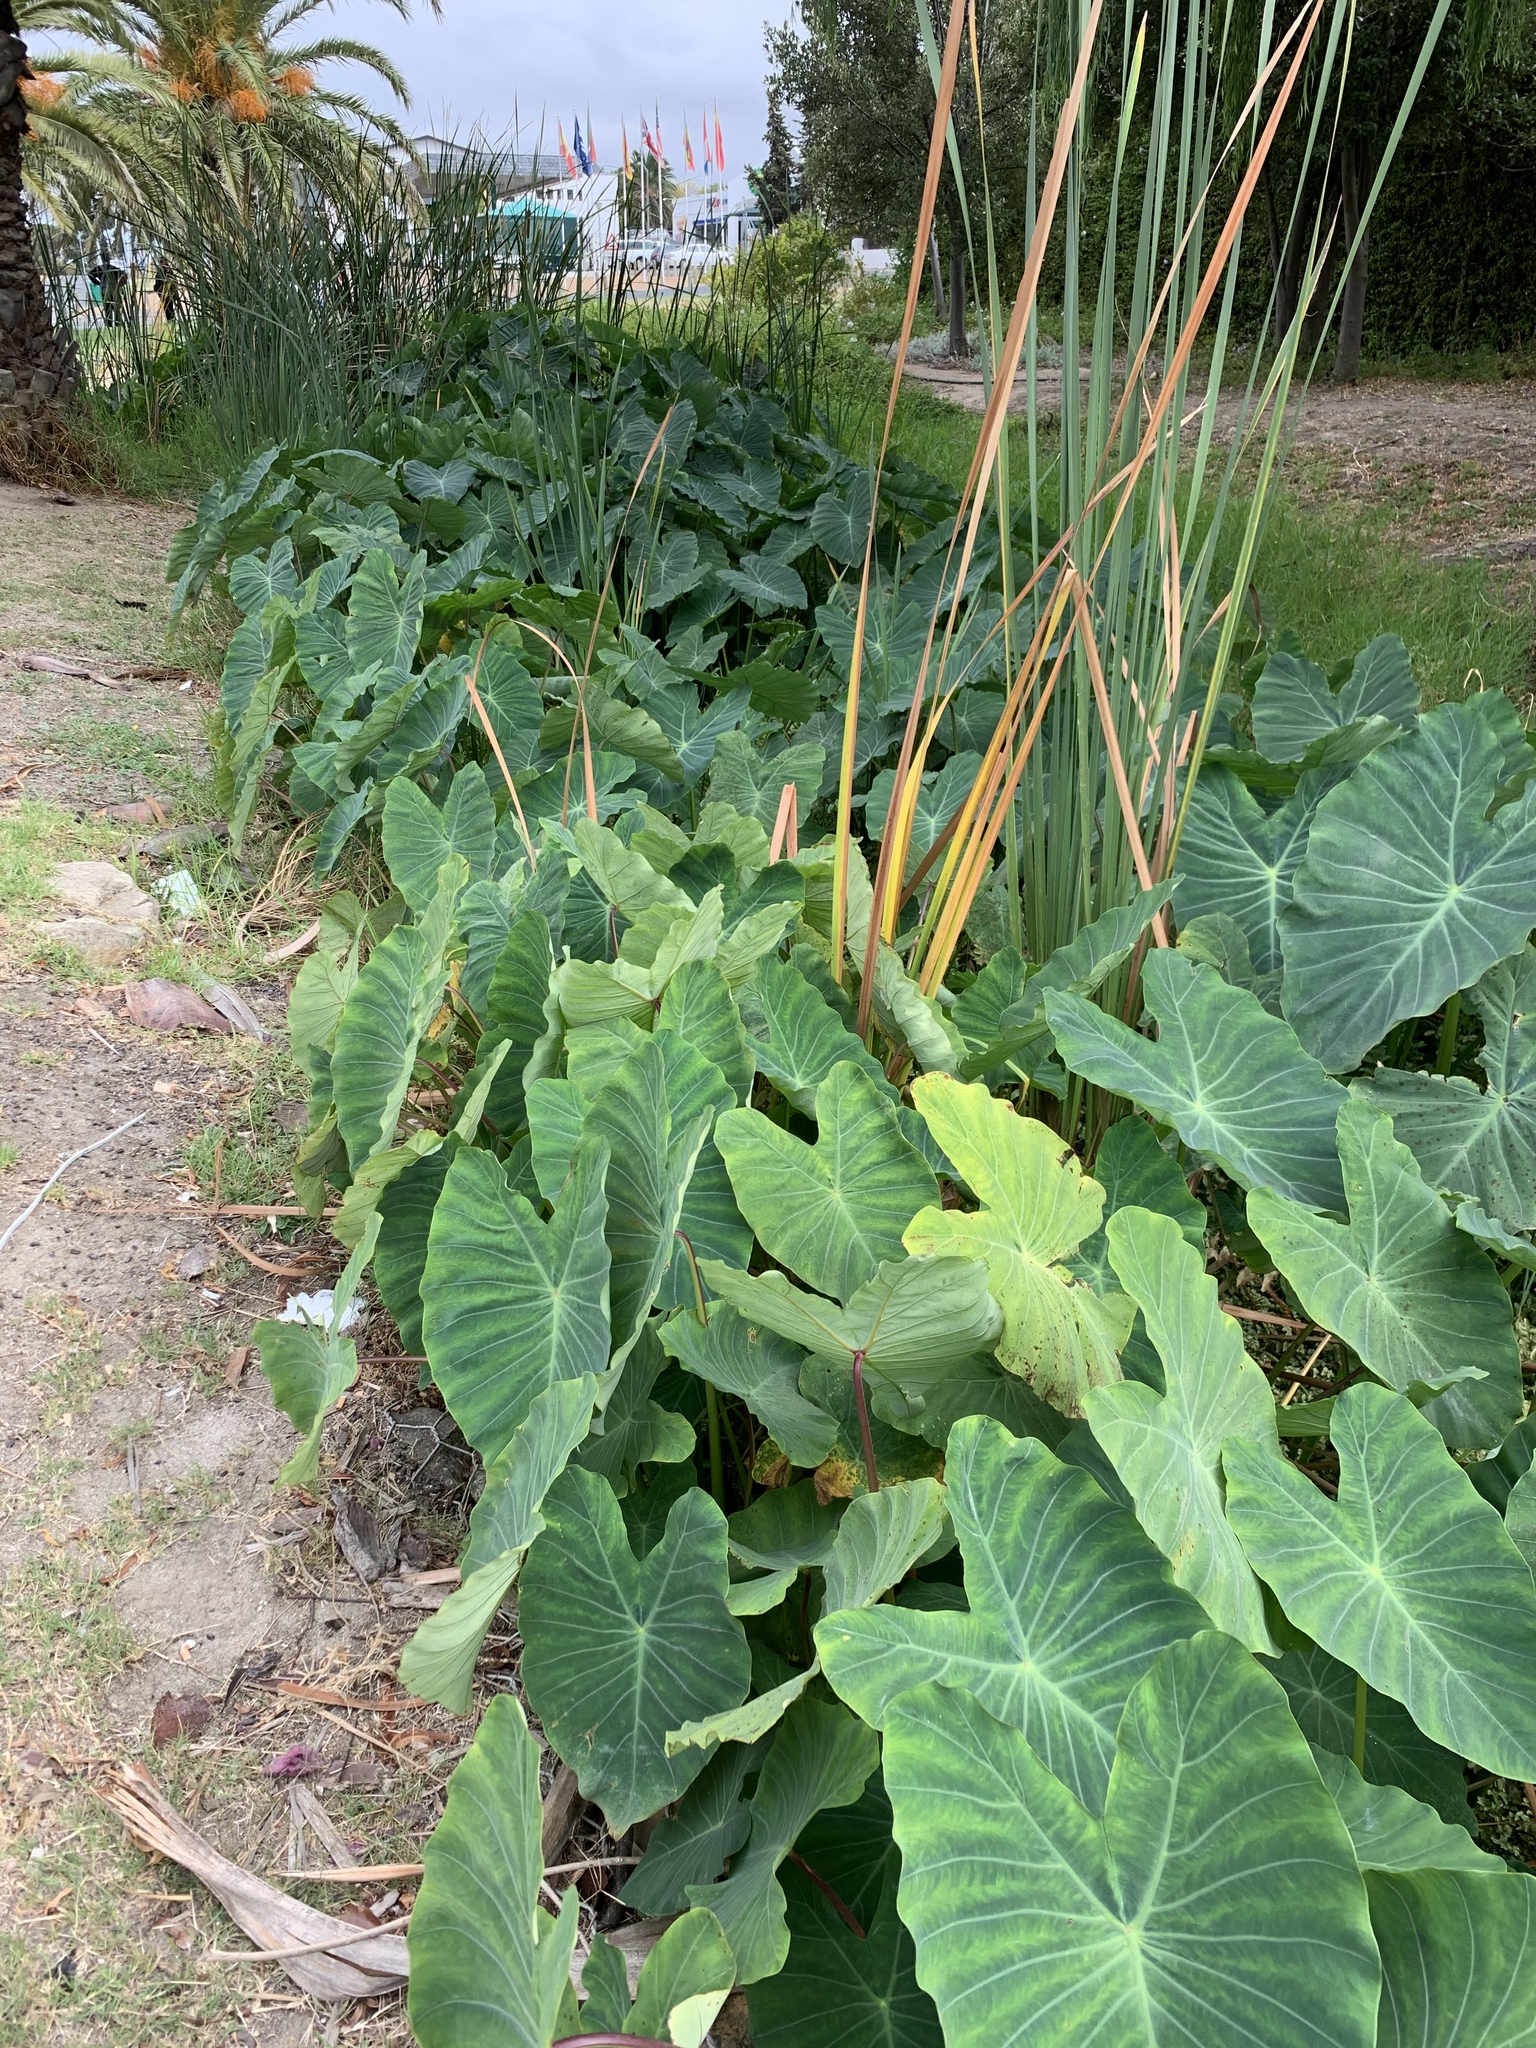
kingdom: Plantae
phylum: Tracheophyta
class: Liliopsida
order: Alismatales
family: Araceae
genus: Colocasia
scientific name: Colocasia esculenta
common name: Taro
